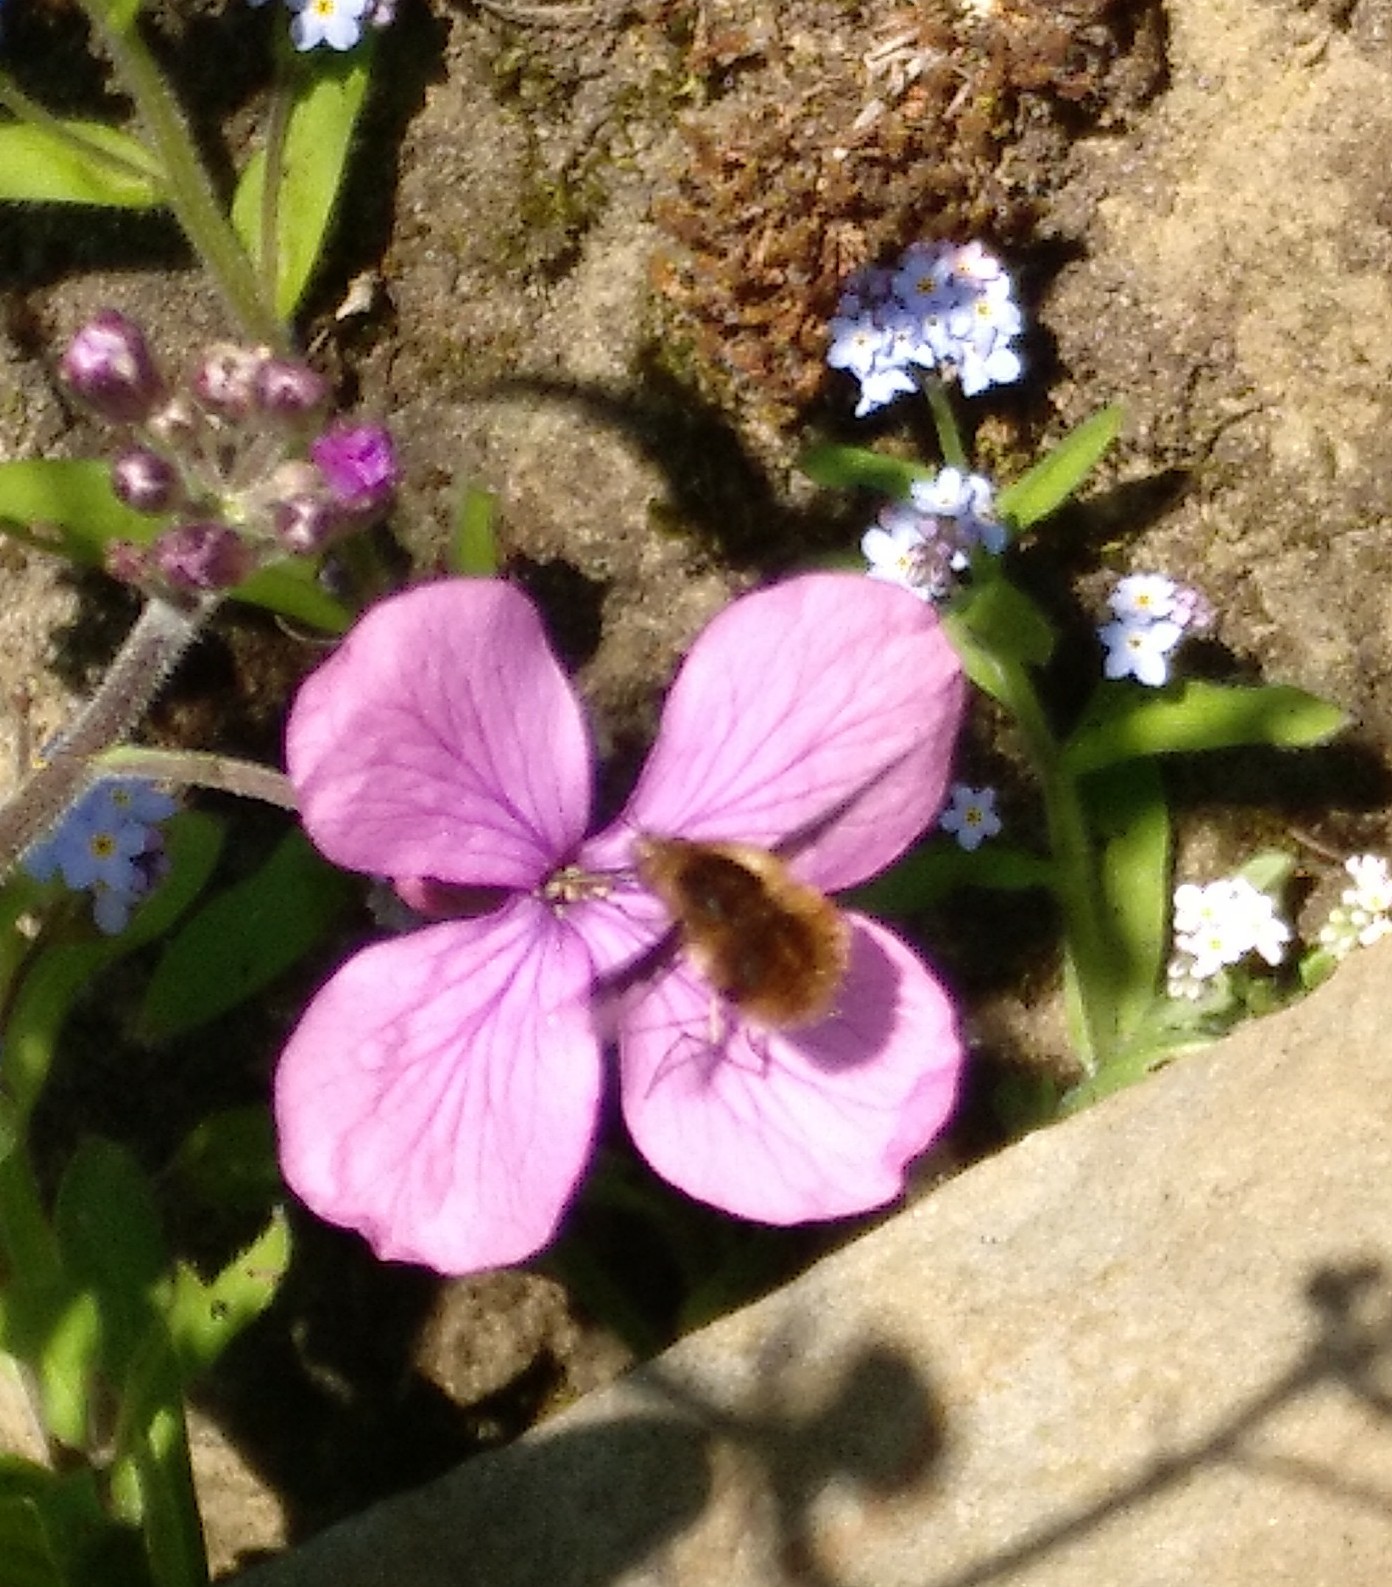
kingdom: Animalia
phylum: Arthropoda
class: Insecta
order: Diptera
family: Bombyliidae
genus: Bombylius
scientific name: Bombylius major
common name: Bee fly
